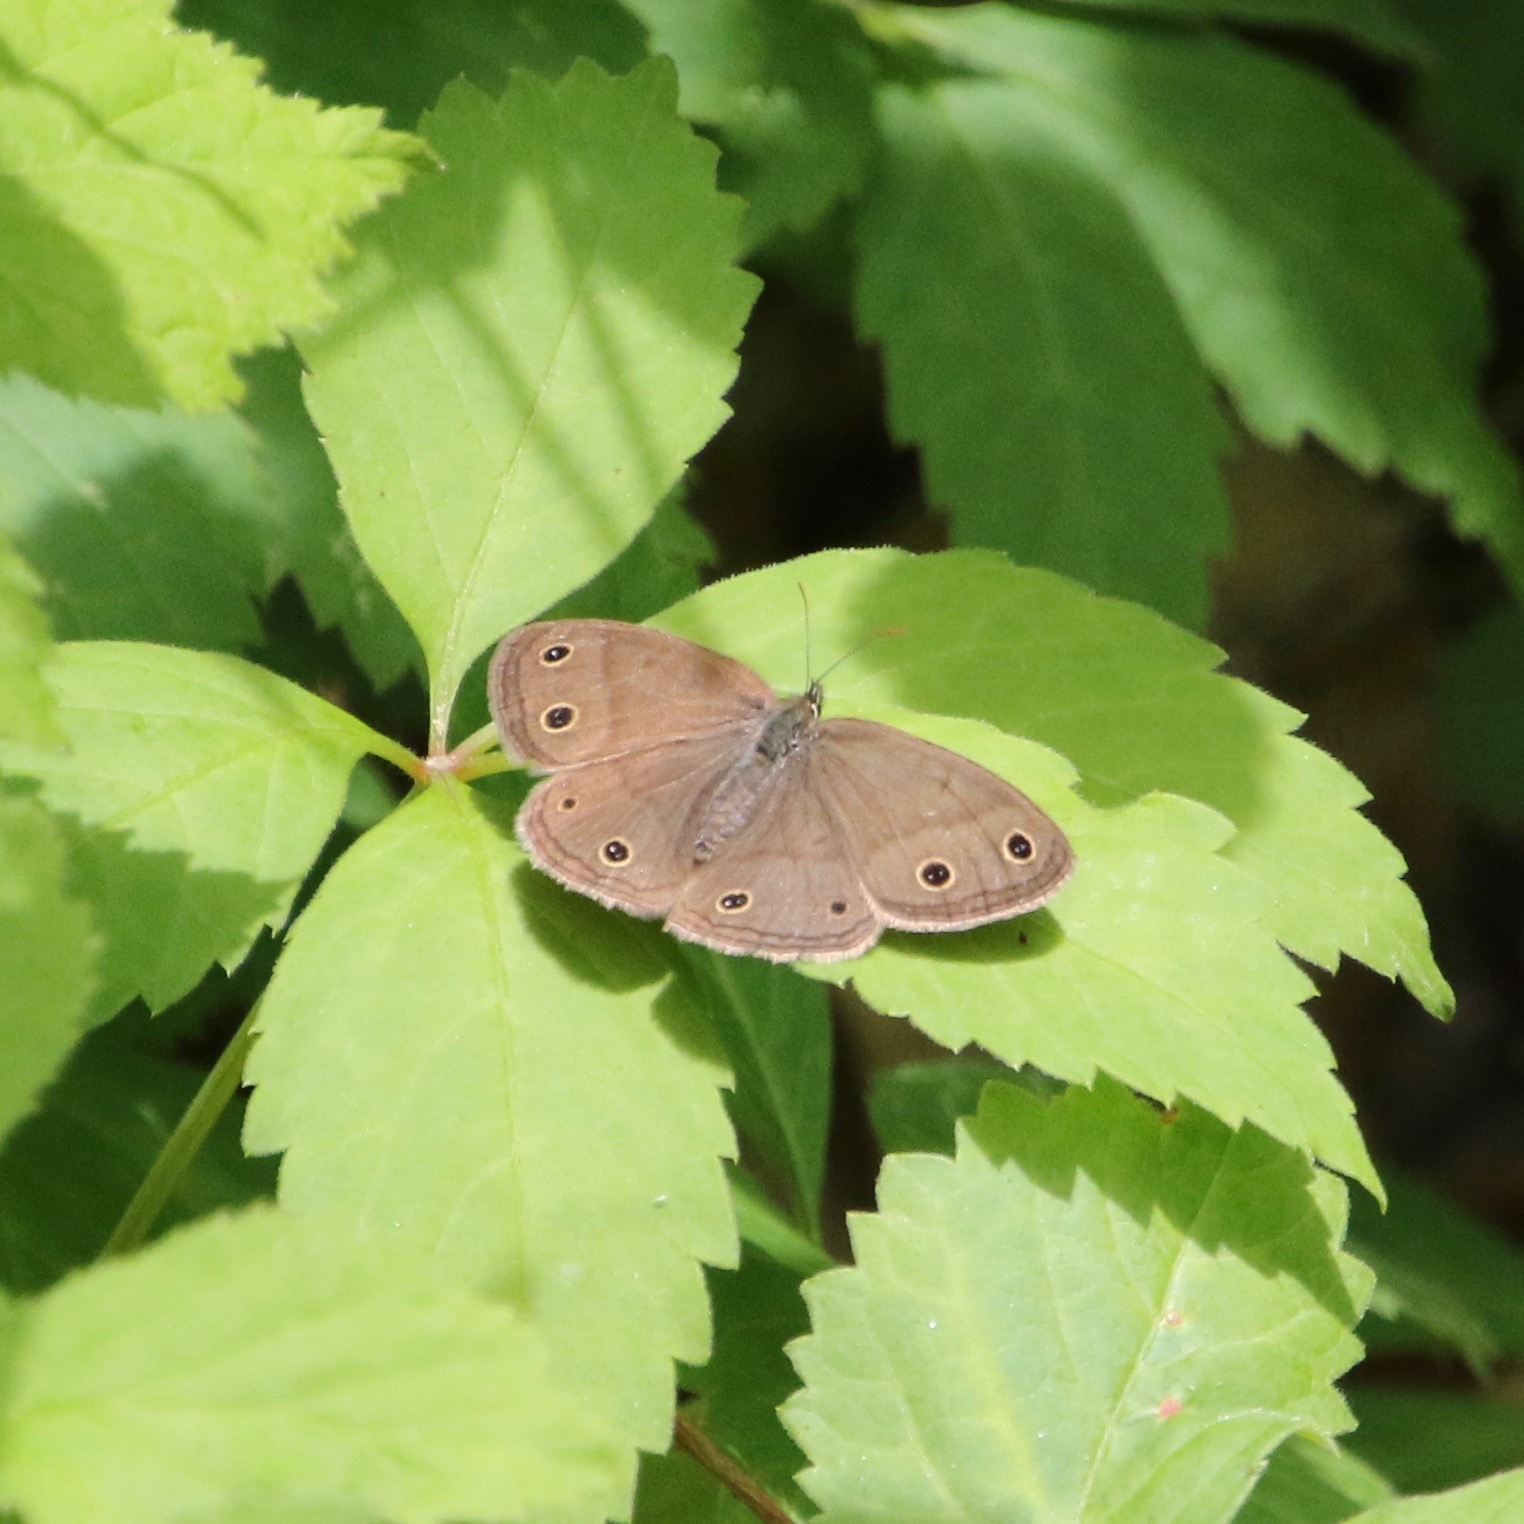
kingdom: Animalia
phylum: Arthropoda
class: Insecta
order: Lepidoptera
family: Nymphalidae
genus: Euptychia
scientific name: Euptychia cymela
